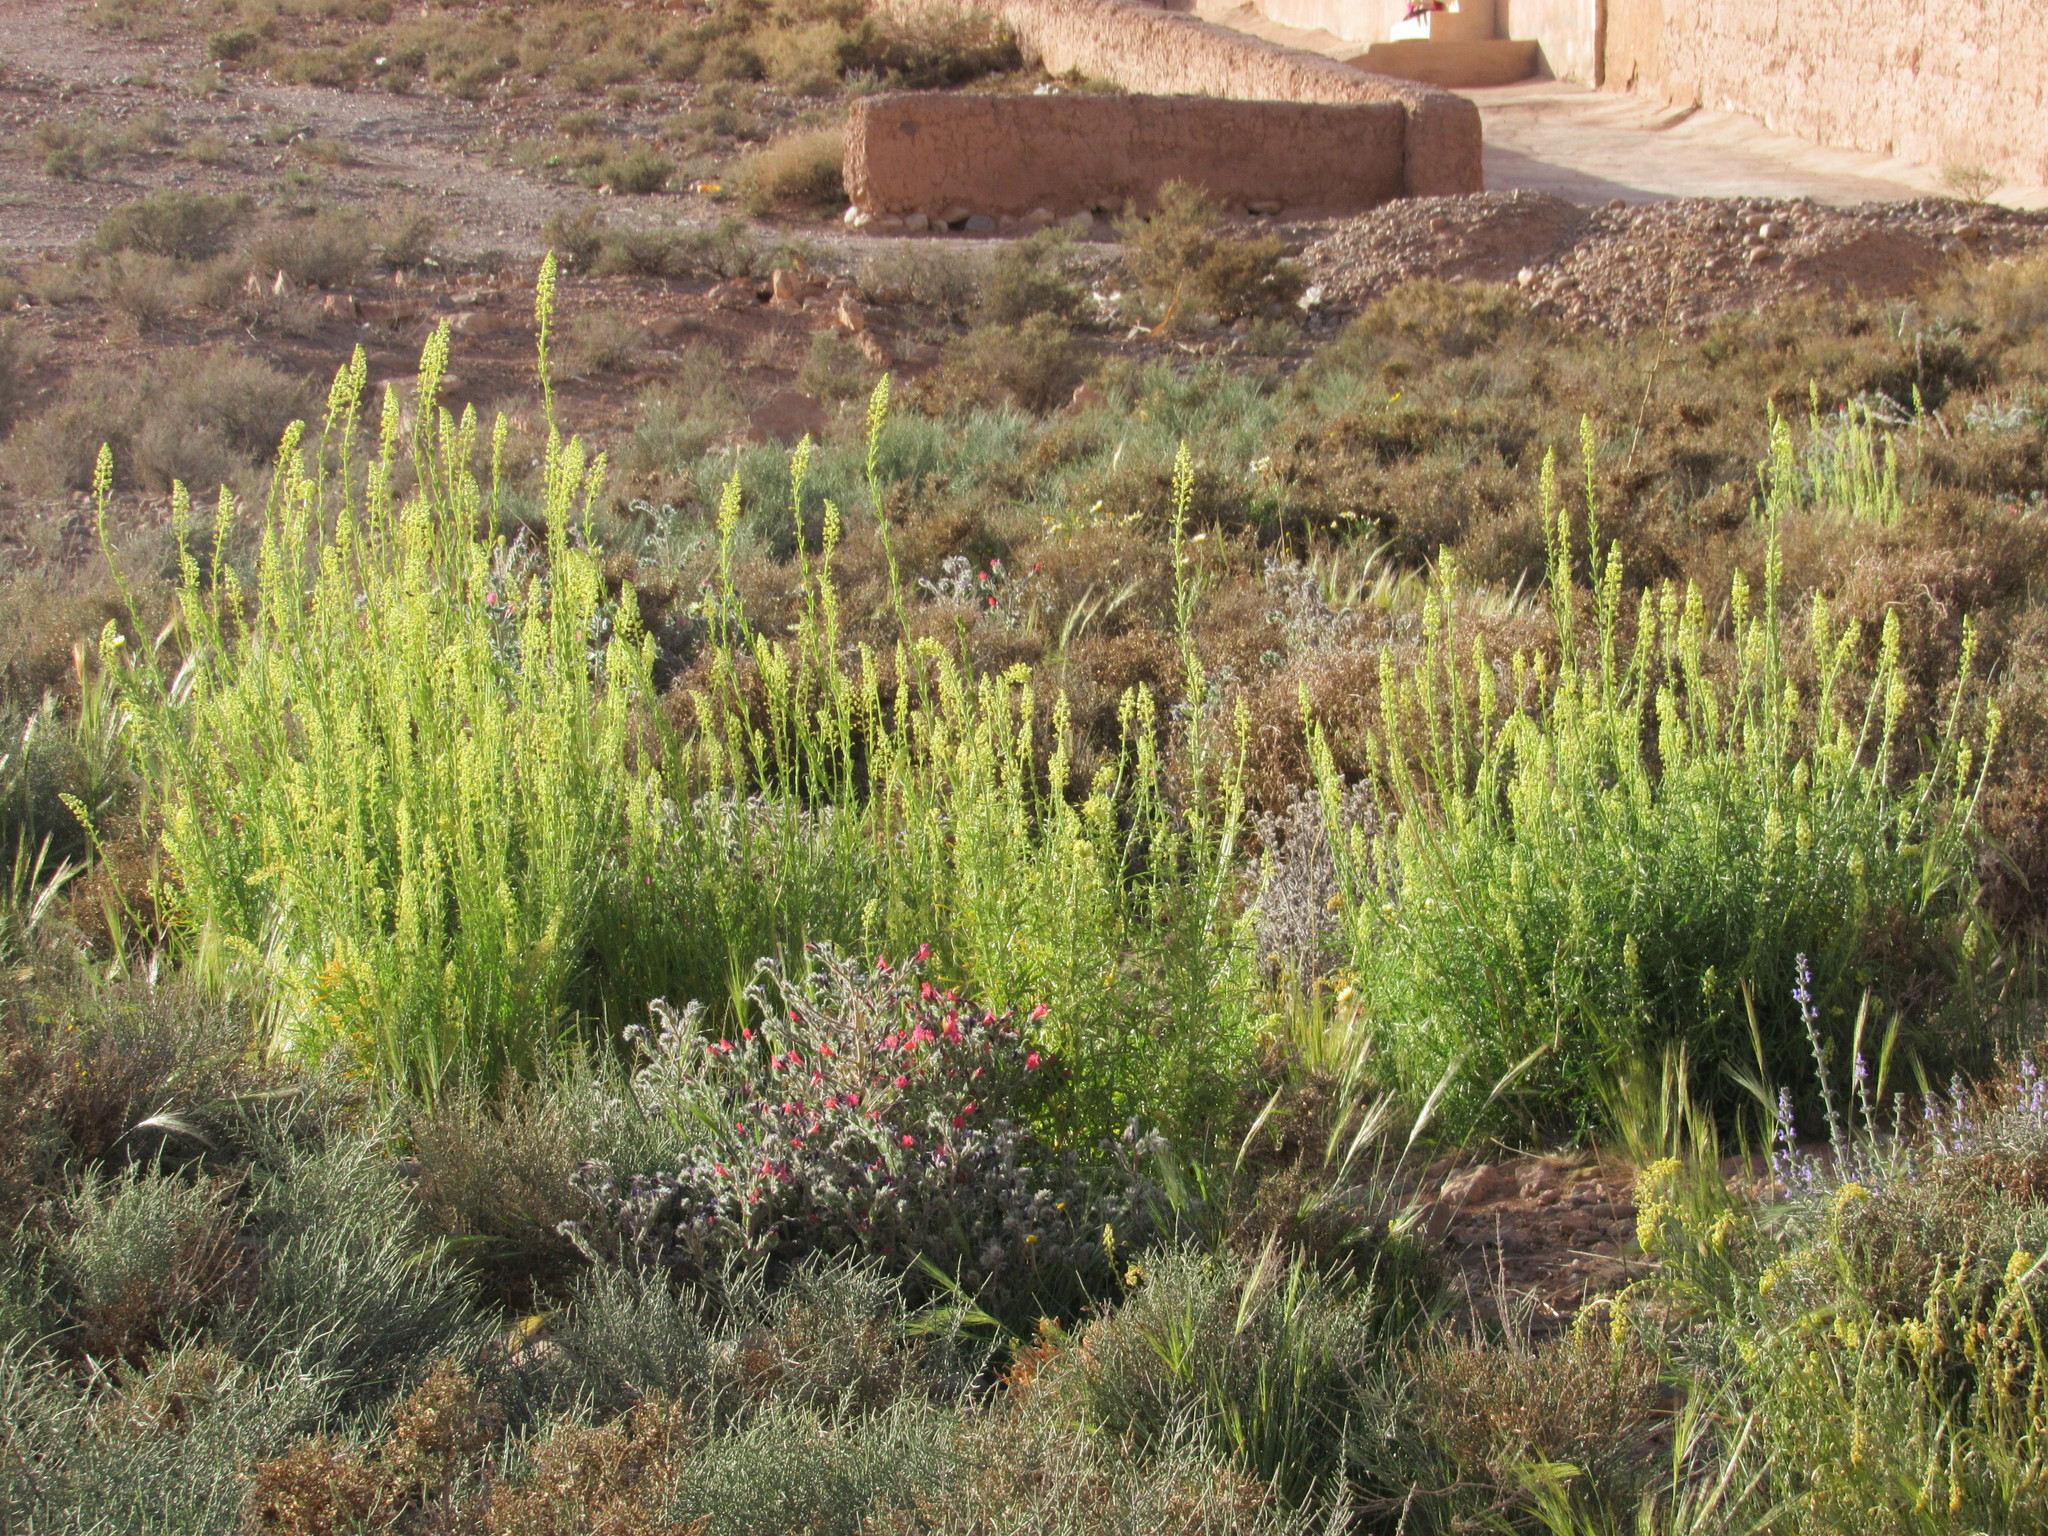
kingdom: Plantae
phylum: Tracheophyta
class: Magnoliopsida
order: Brassicales
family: Resedaceae
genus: Reseda
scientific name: Reseda lutea
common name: Wild mignonette
